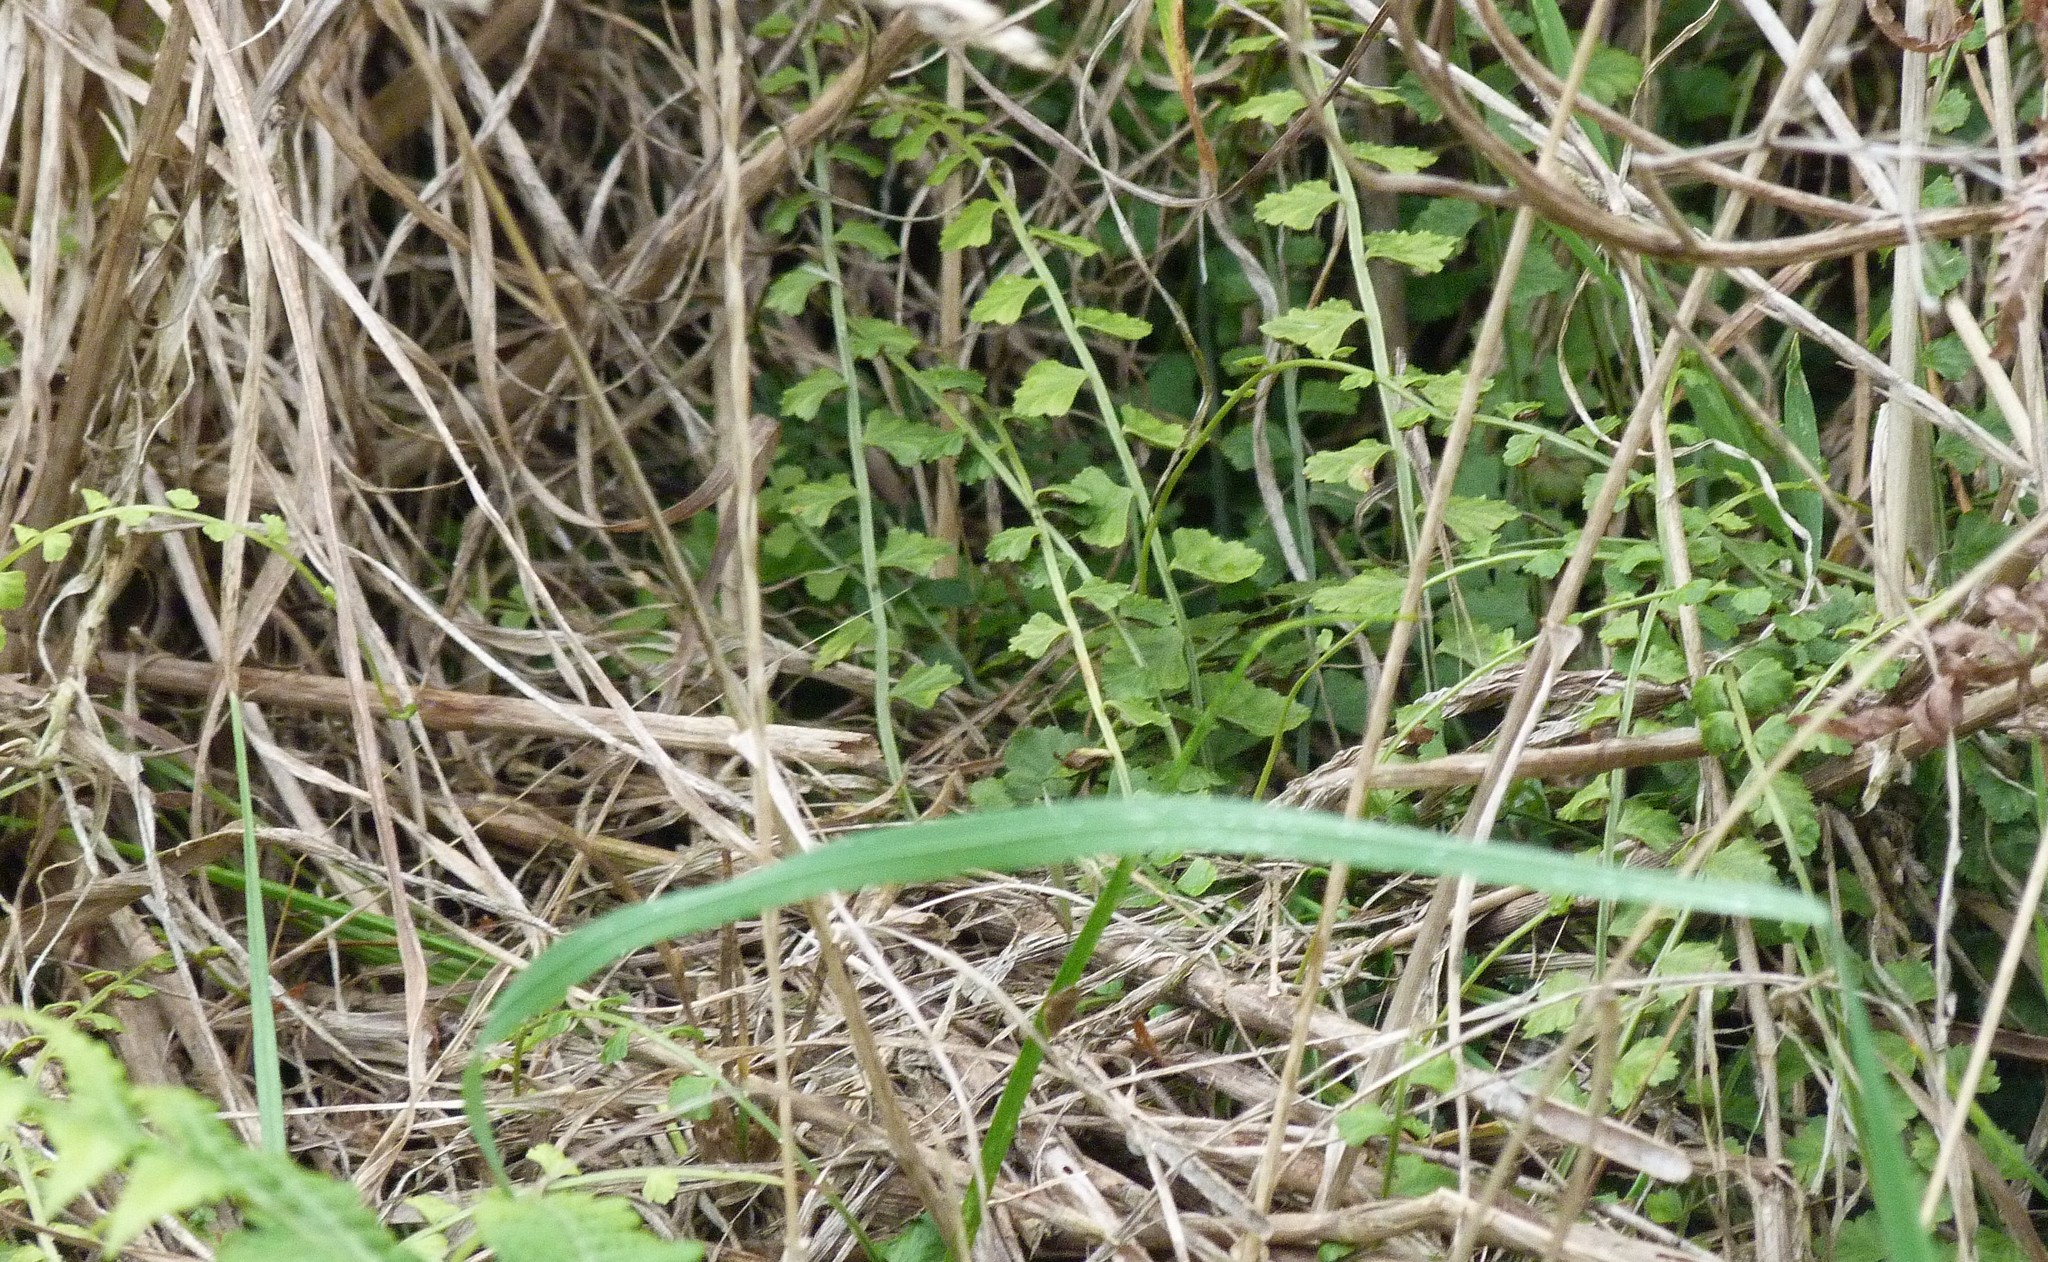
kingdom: Plantae
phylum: Tracheophyta
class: Polypodiopsida
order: Polypodiales
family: Aspleniaceae
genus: Asplenium
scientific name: Asplenium flabellifolium
